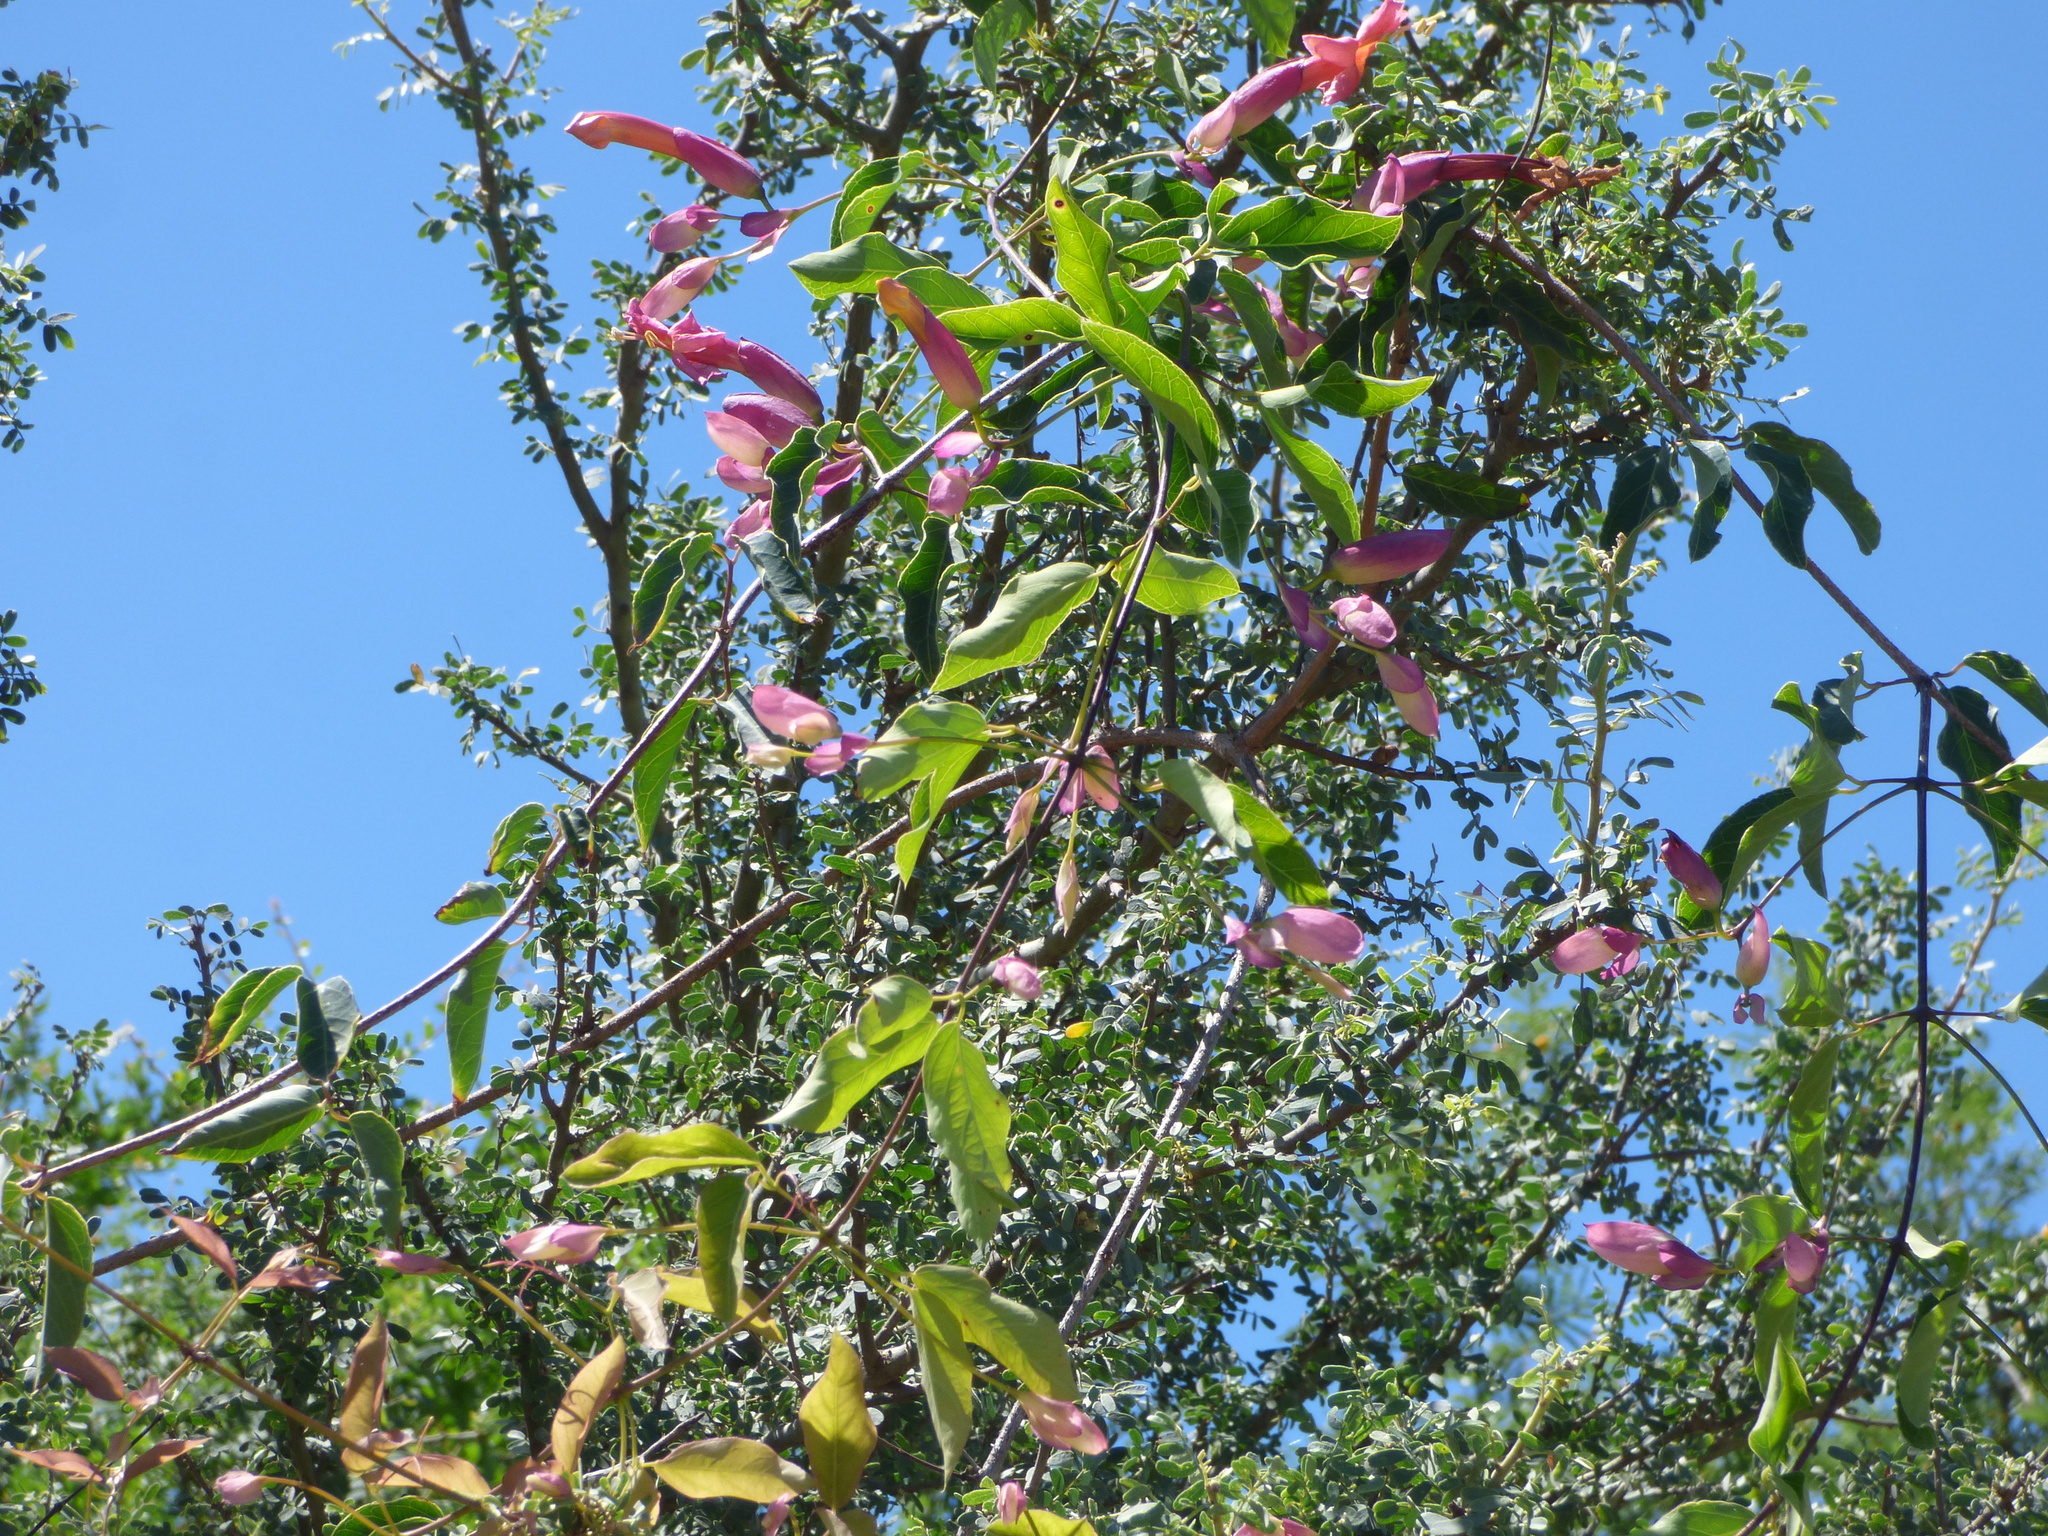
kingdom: Plantae
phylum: Tracheophyta
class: Magnoliopsida
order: Lamiales
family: Bignoniaceae
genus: Dolichandra
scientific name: Dolichandra cynanchoides
